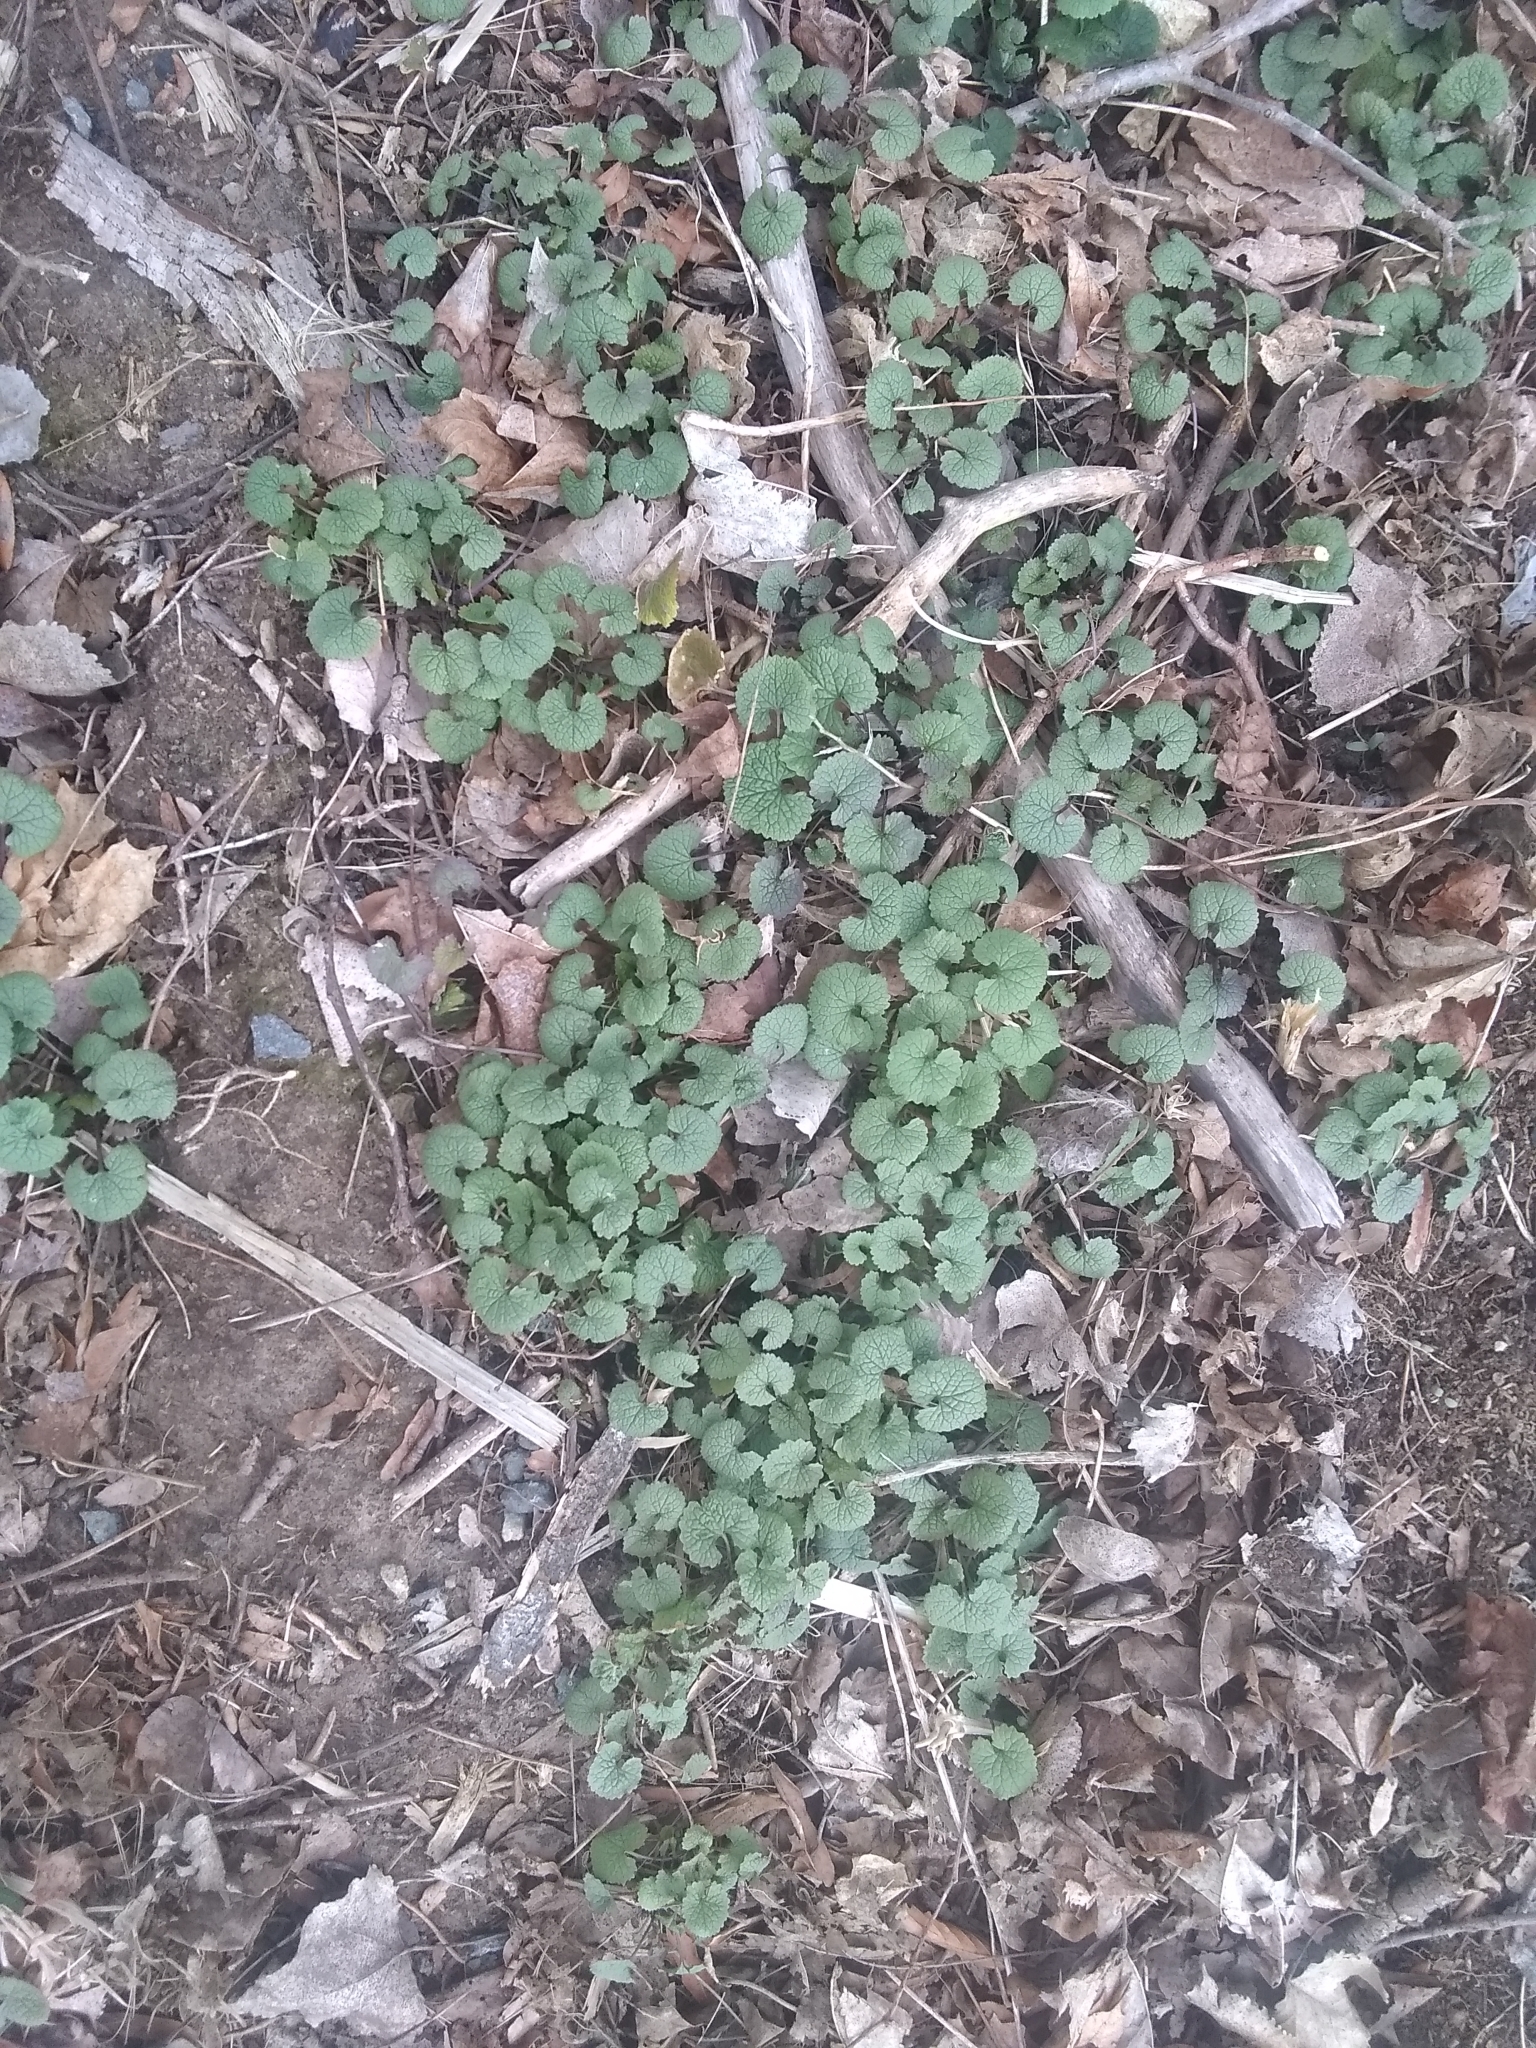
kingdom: Plantae
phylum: Tracheophyta
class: Magnoliopsida
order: Brassicales
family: Brassicaceae
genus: Alliaria
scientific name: Alliaria petiolata
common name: Garlic mustard
